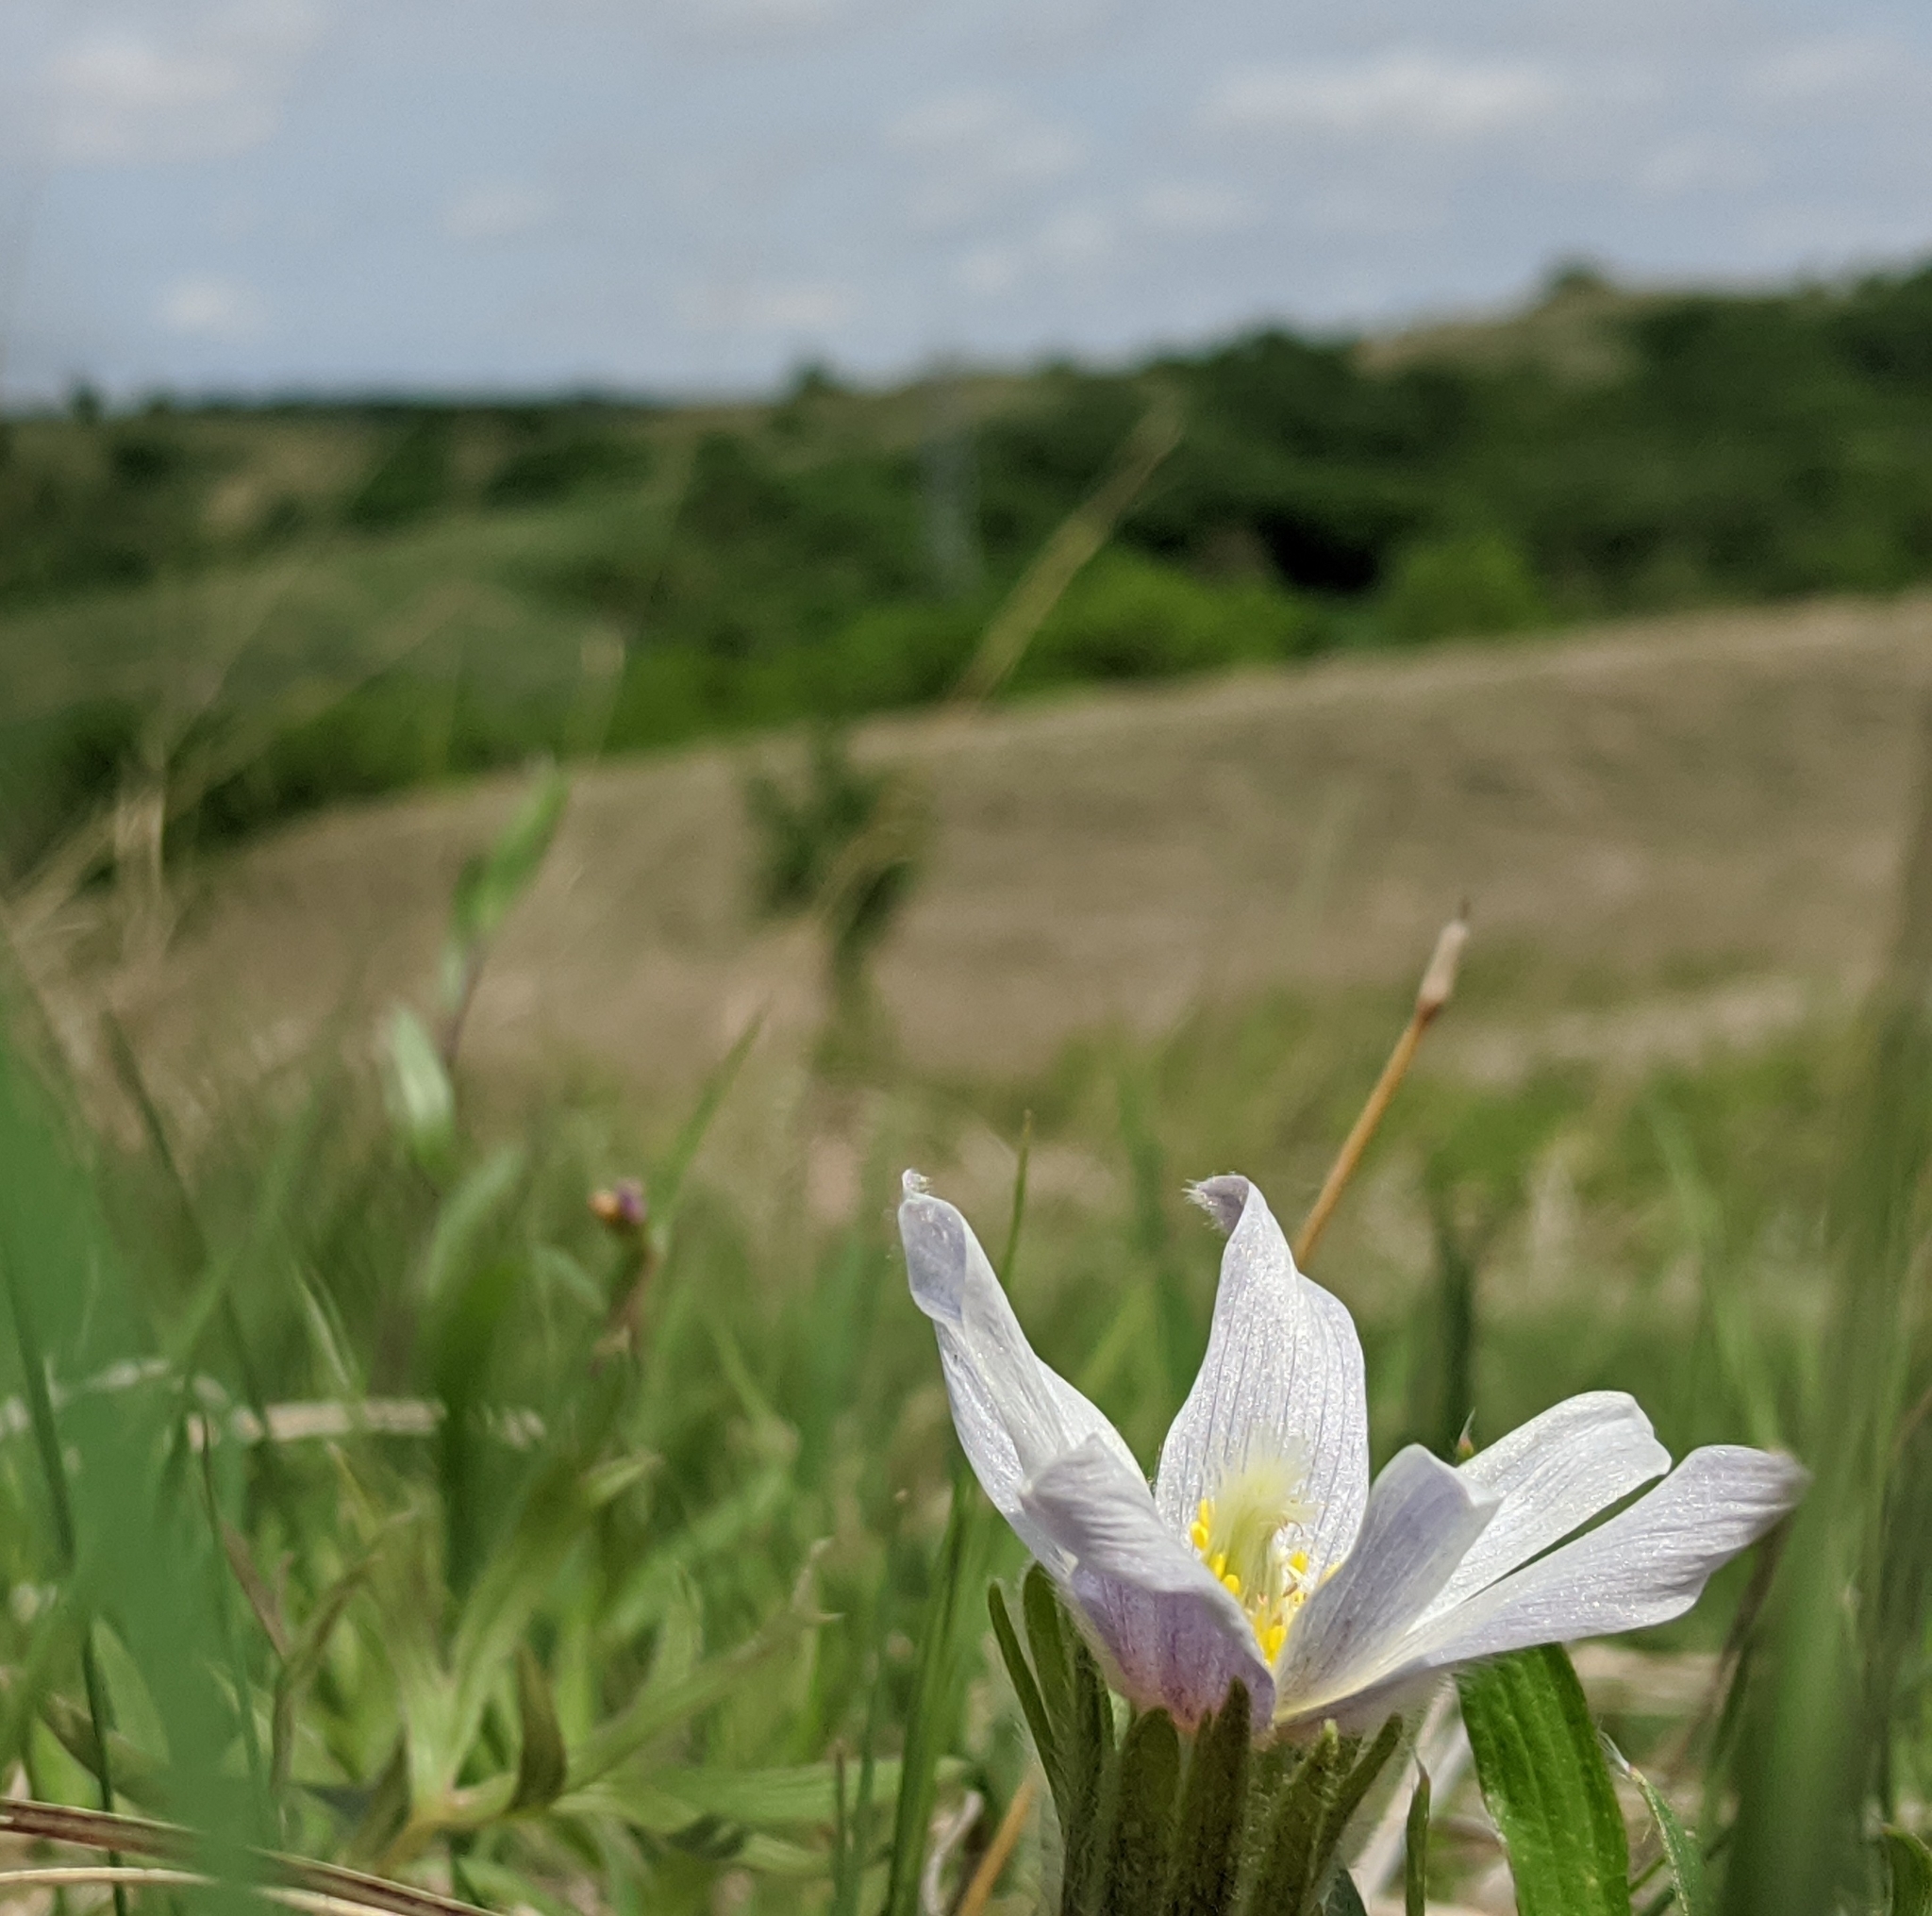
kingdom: Plantae
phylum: Tracheophyta
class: Magnoliopsida
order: Ranunculales
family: Ranunculaceae
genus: Pulsatilla
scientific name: Pulsatilla nuttalliana
